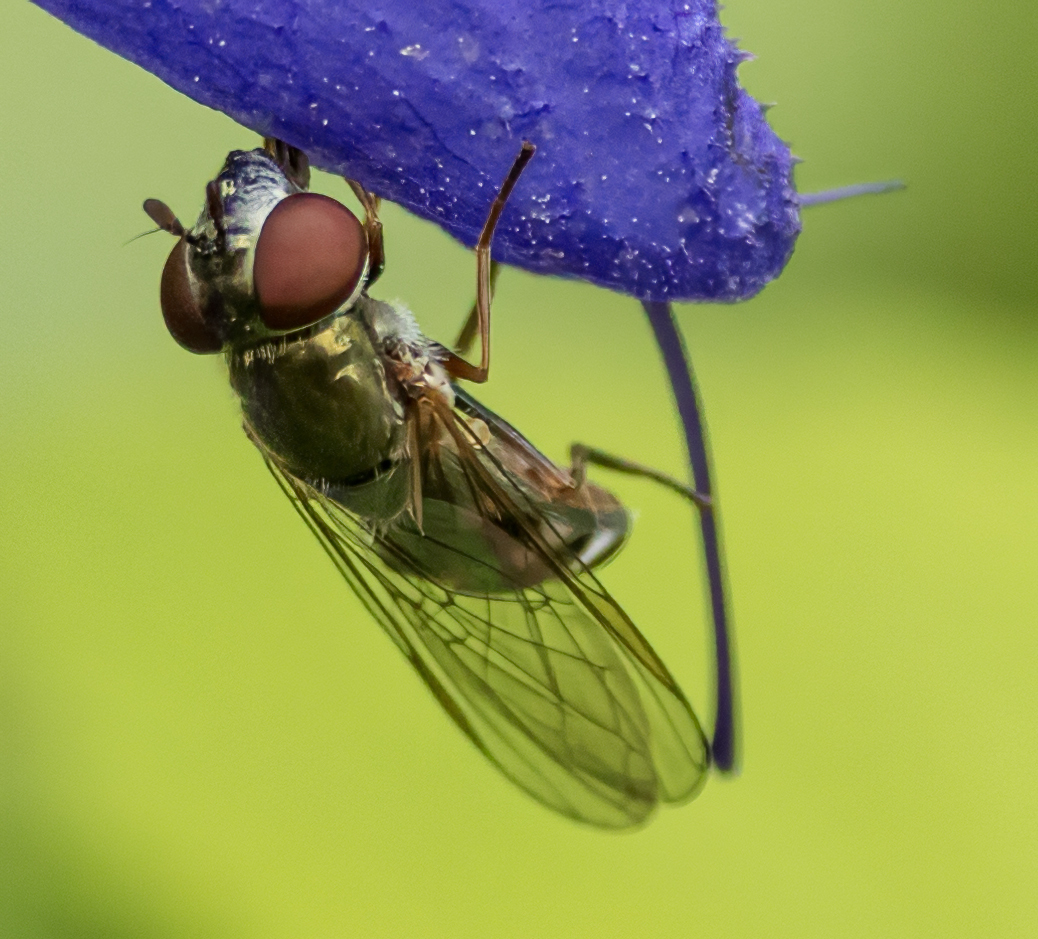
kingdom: Animalia
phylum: Arthropoda
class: Insecta
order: Diptera
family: Syrphidae
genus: Platycheirus
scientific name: Platycheirus obscurus
